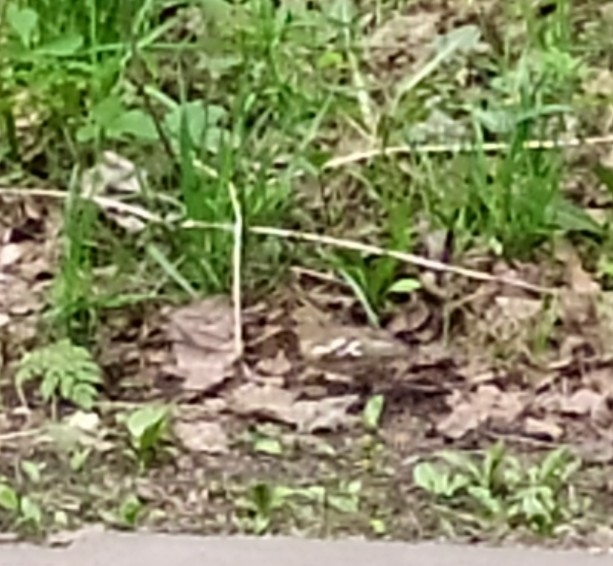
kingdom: Animalia
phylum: Chordata
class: Aves
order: Passeriformes
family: Fringillidae
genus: Fringilla
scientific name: Fringilla coelebs
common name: Common chaffinch
